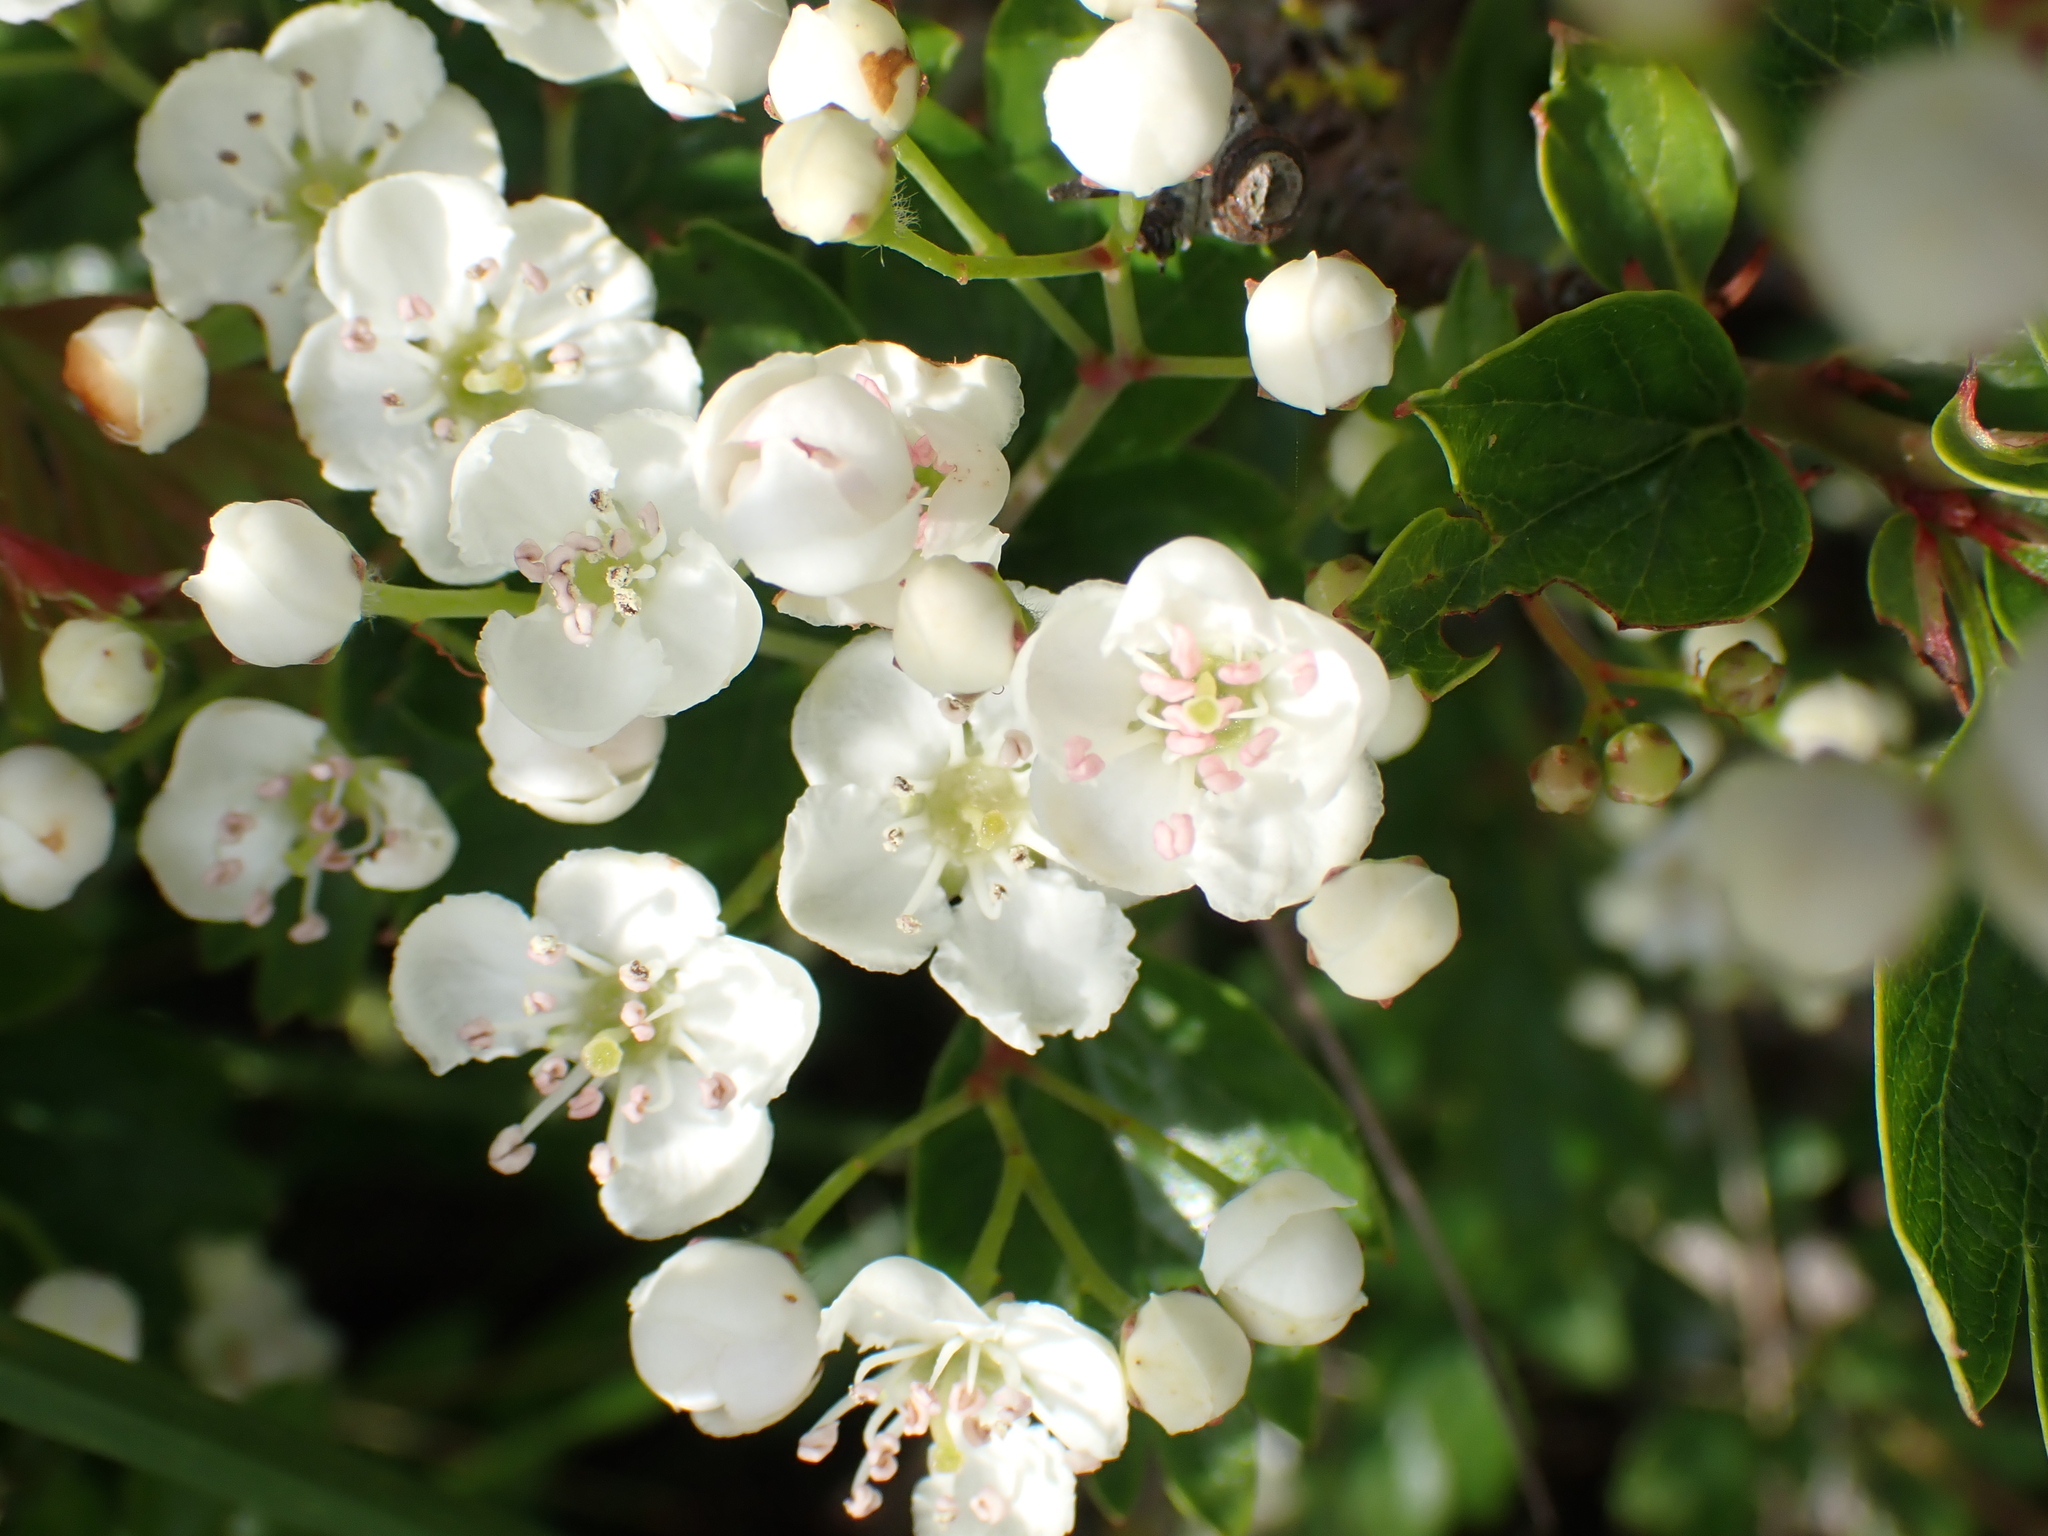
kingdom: Plantae
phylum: Tracheophyta
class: Magnoliopsida
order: Rosales
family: Rosaceae
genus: Crataegus
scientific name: Crataegus monogyna
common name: Hawthorn
